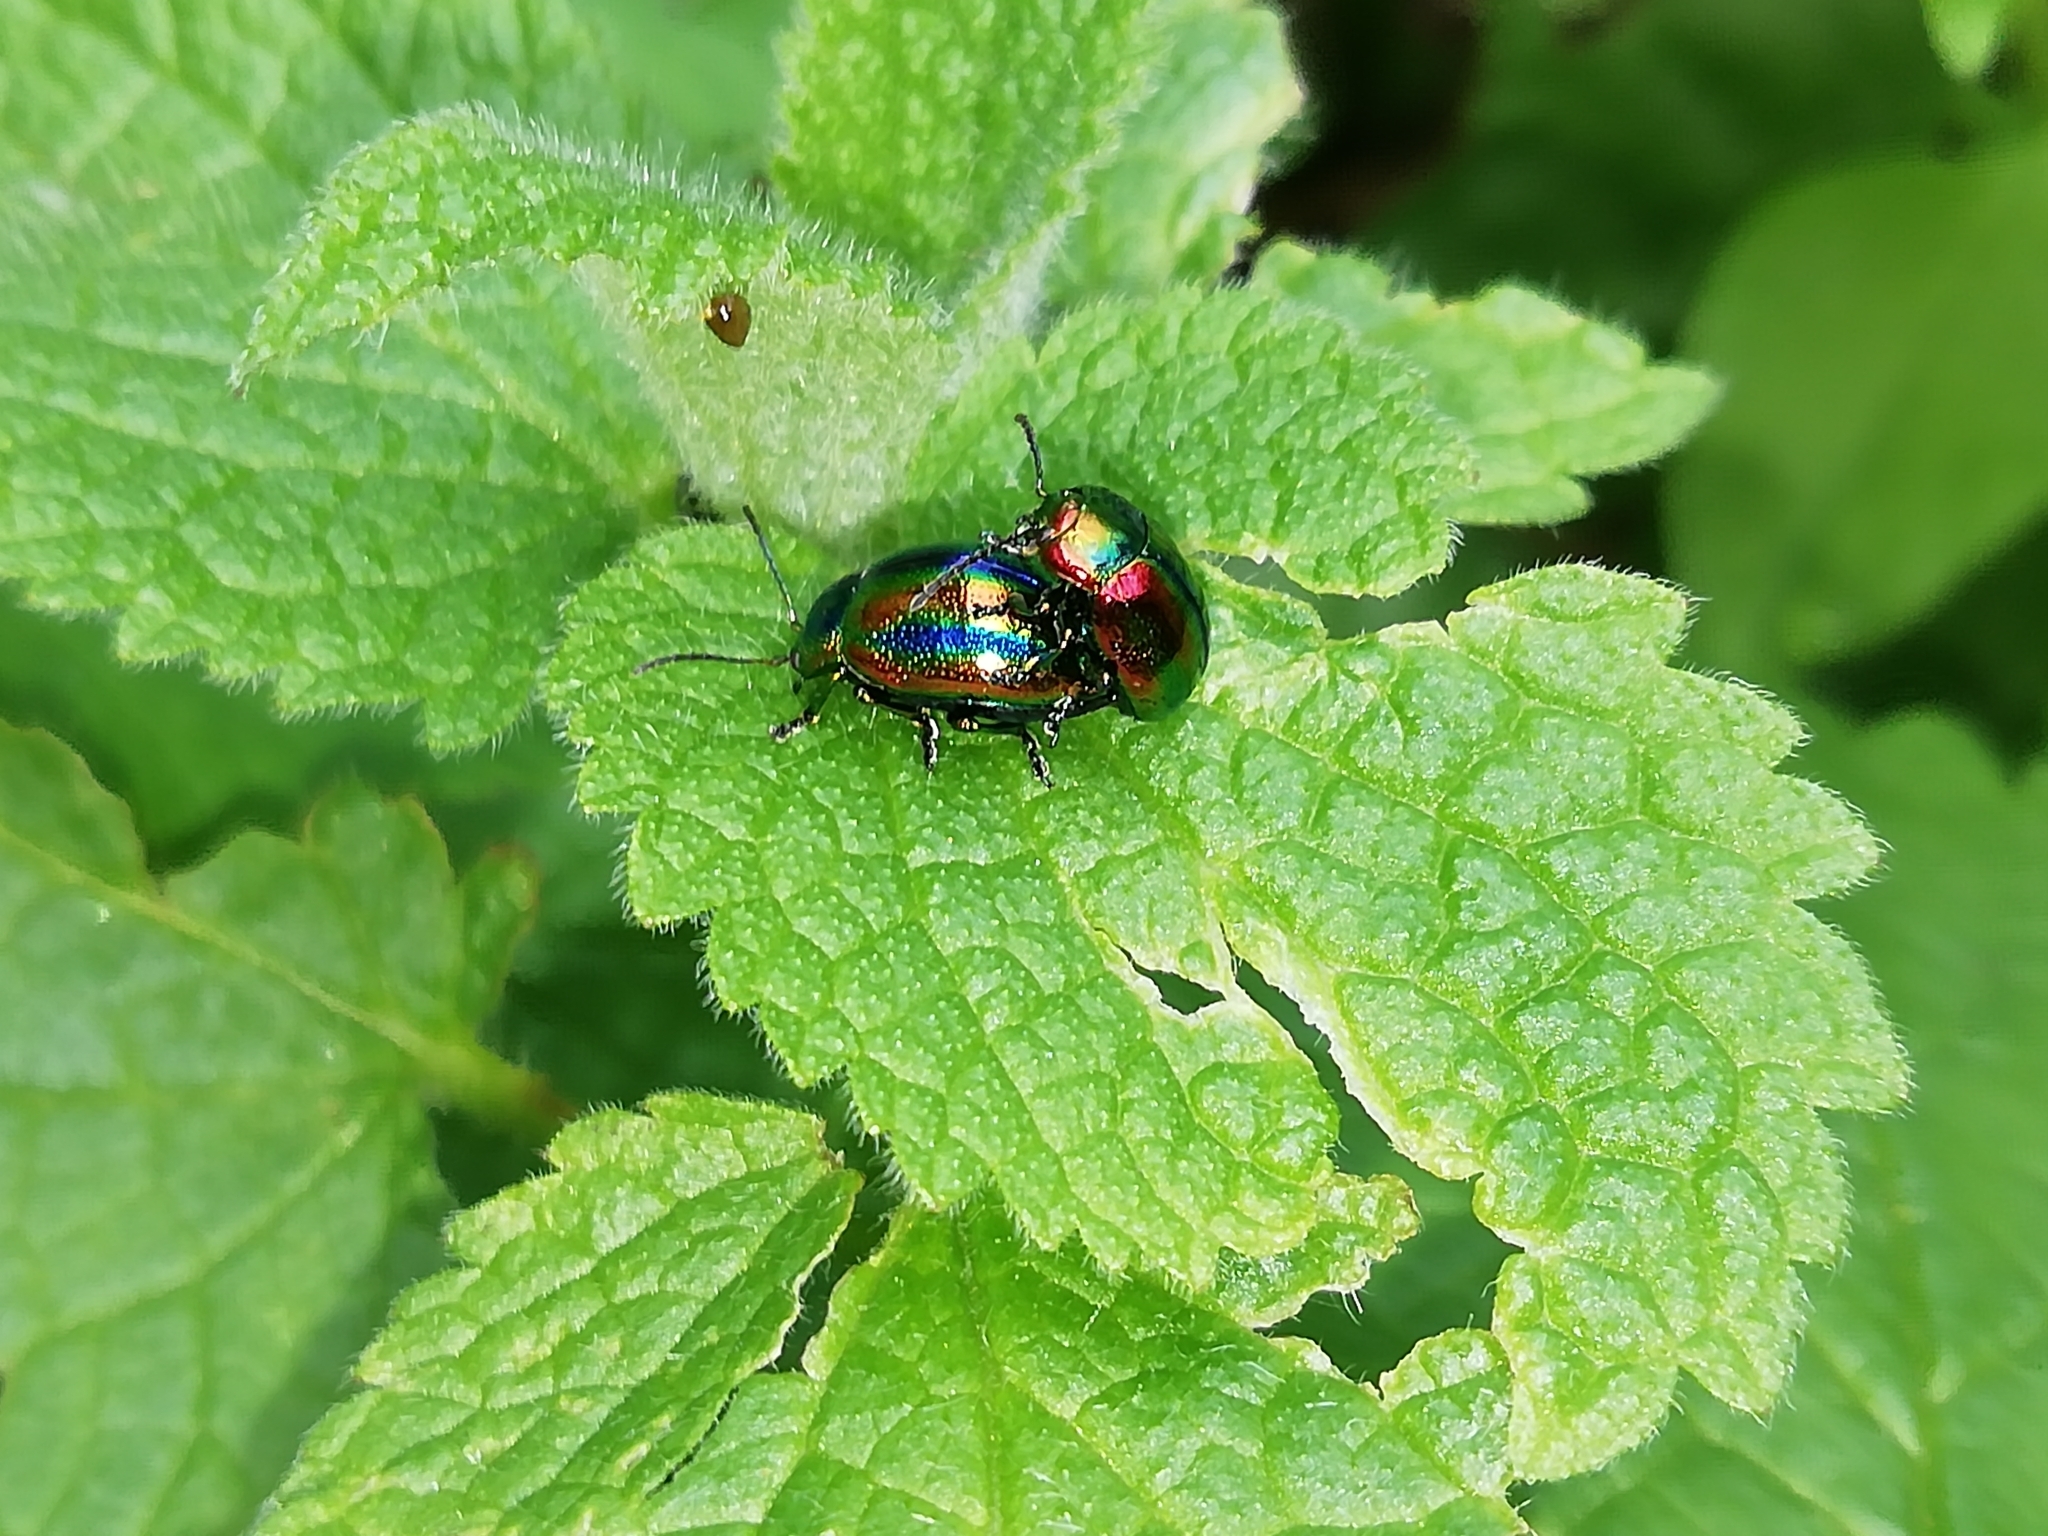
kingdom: Animalia
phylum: Arthropoda
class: Insecta
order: Coleoptera
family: Chrysomelidae
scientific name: Chrysomelidae
